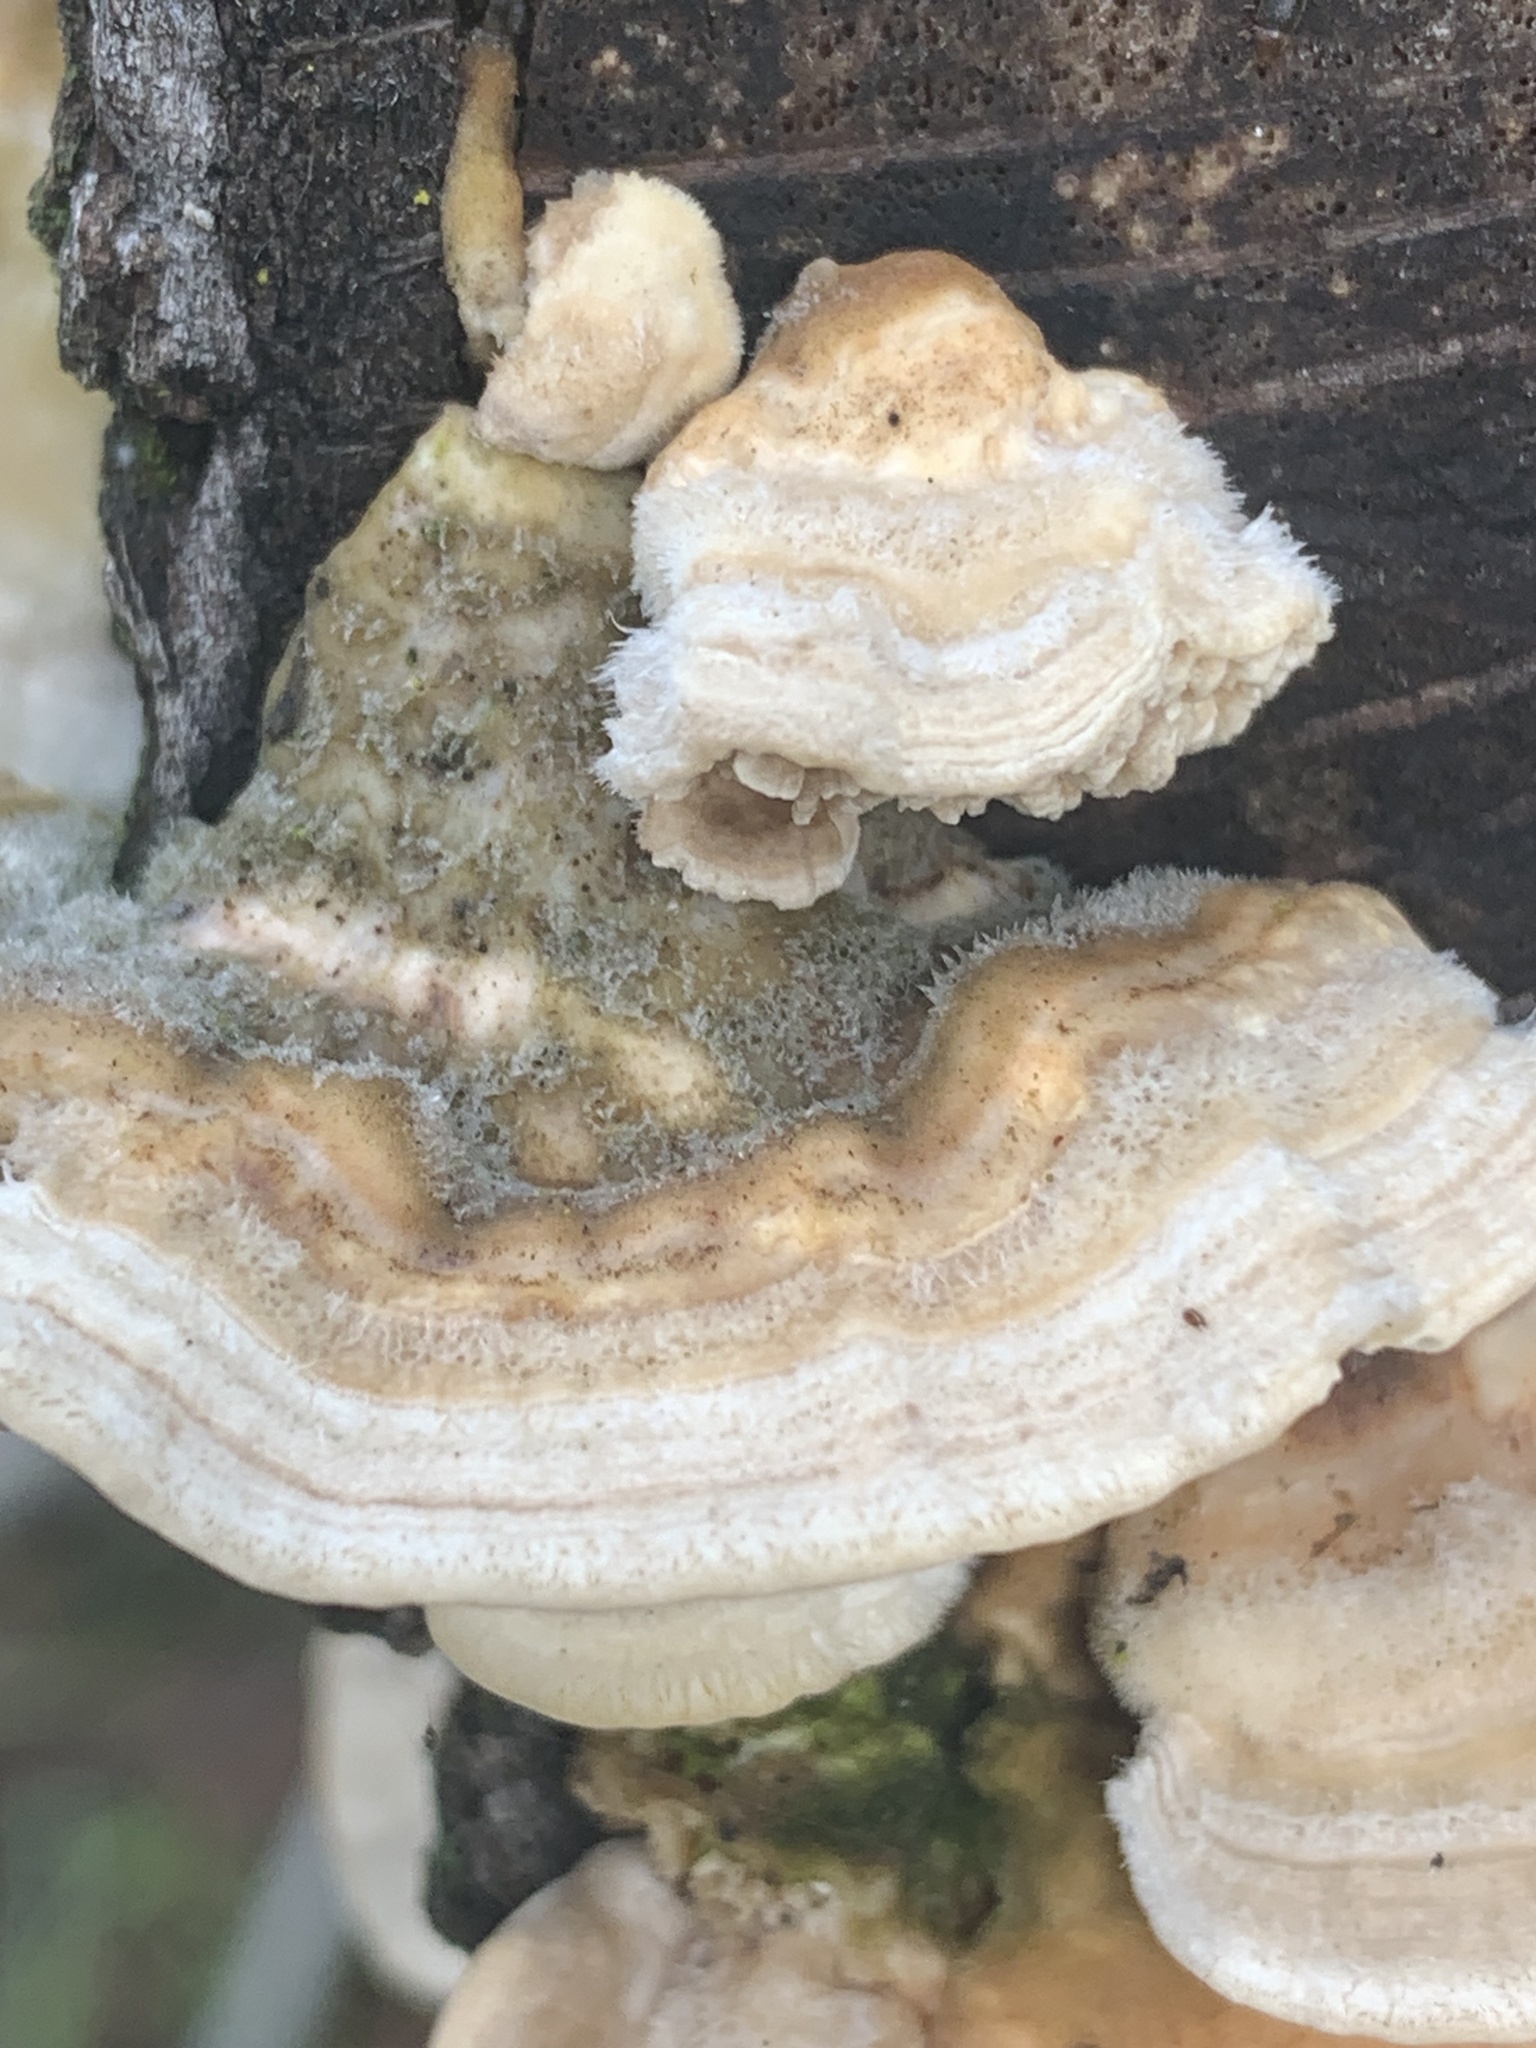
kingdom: Fungi
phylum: Basidiomycota
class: Agaricomycetes
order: Polyporales
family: Polyporaceae
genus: Lenzites
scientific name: Lenzites betulinus
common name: Birch mazegill
